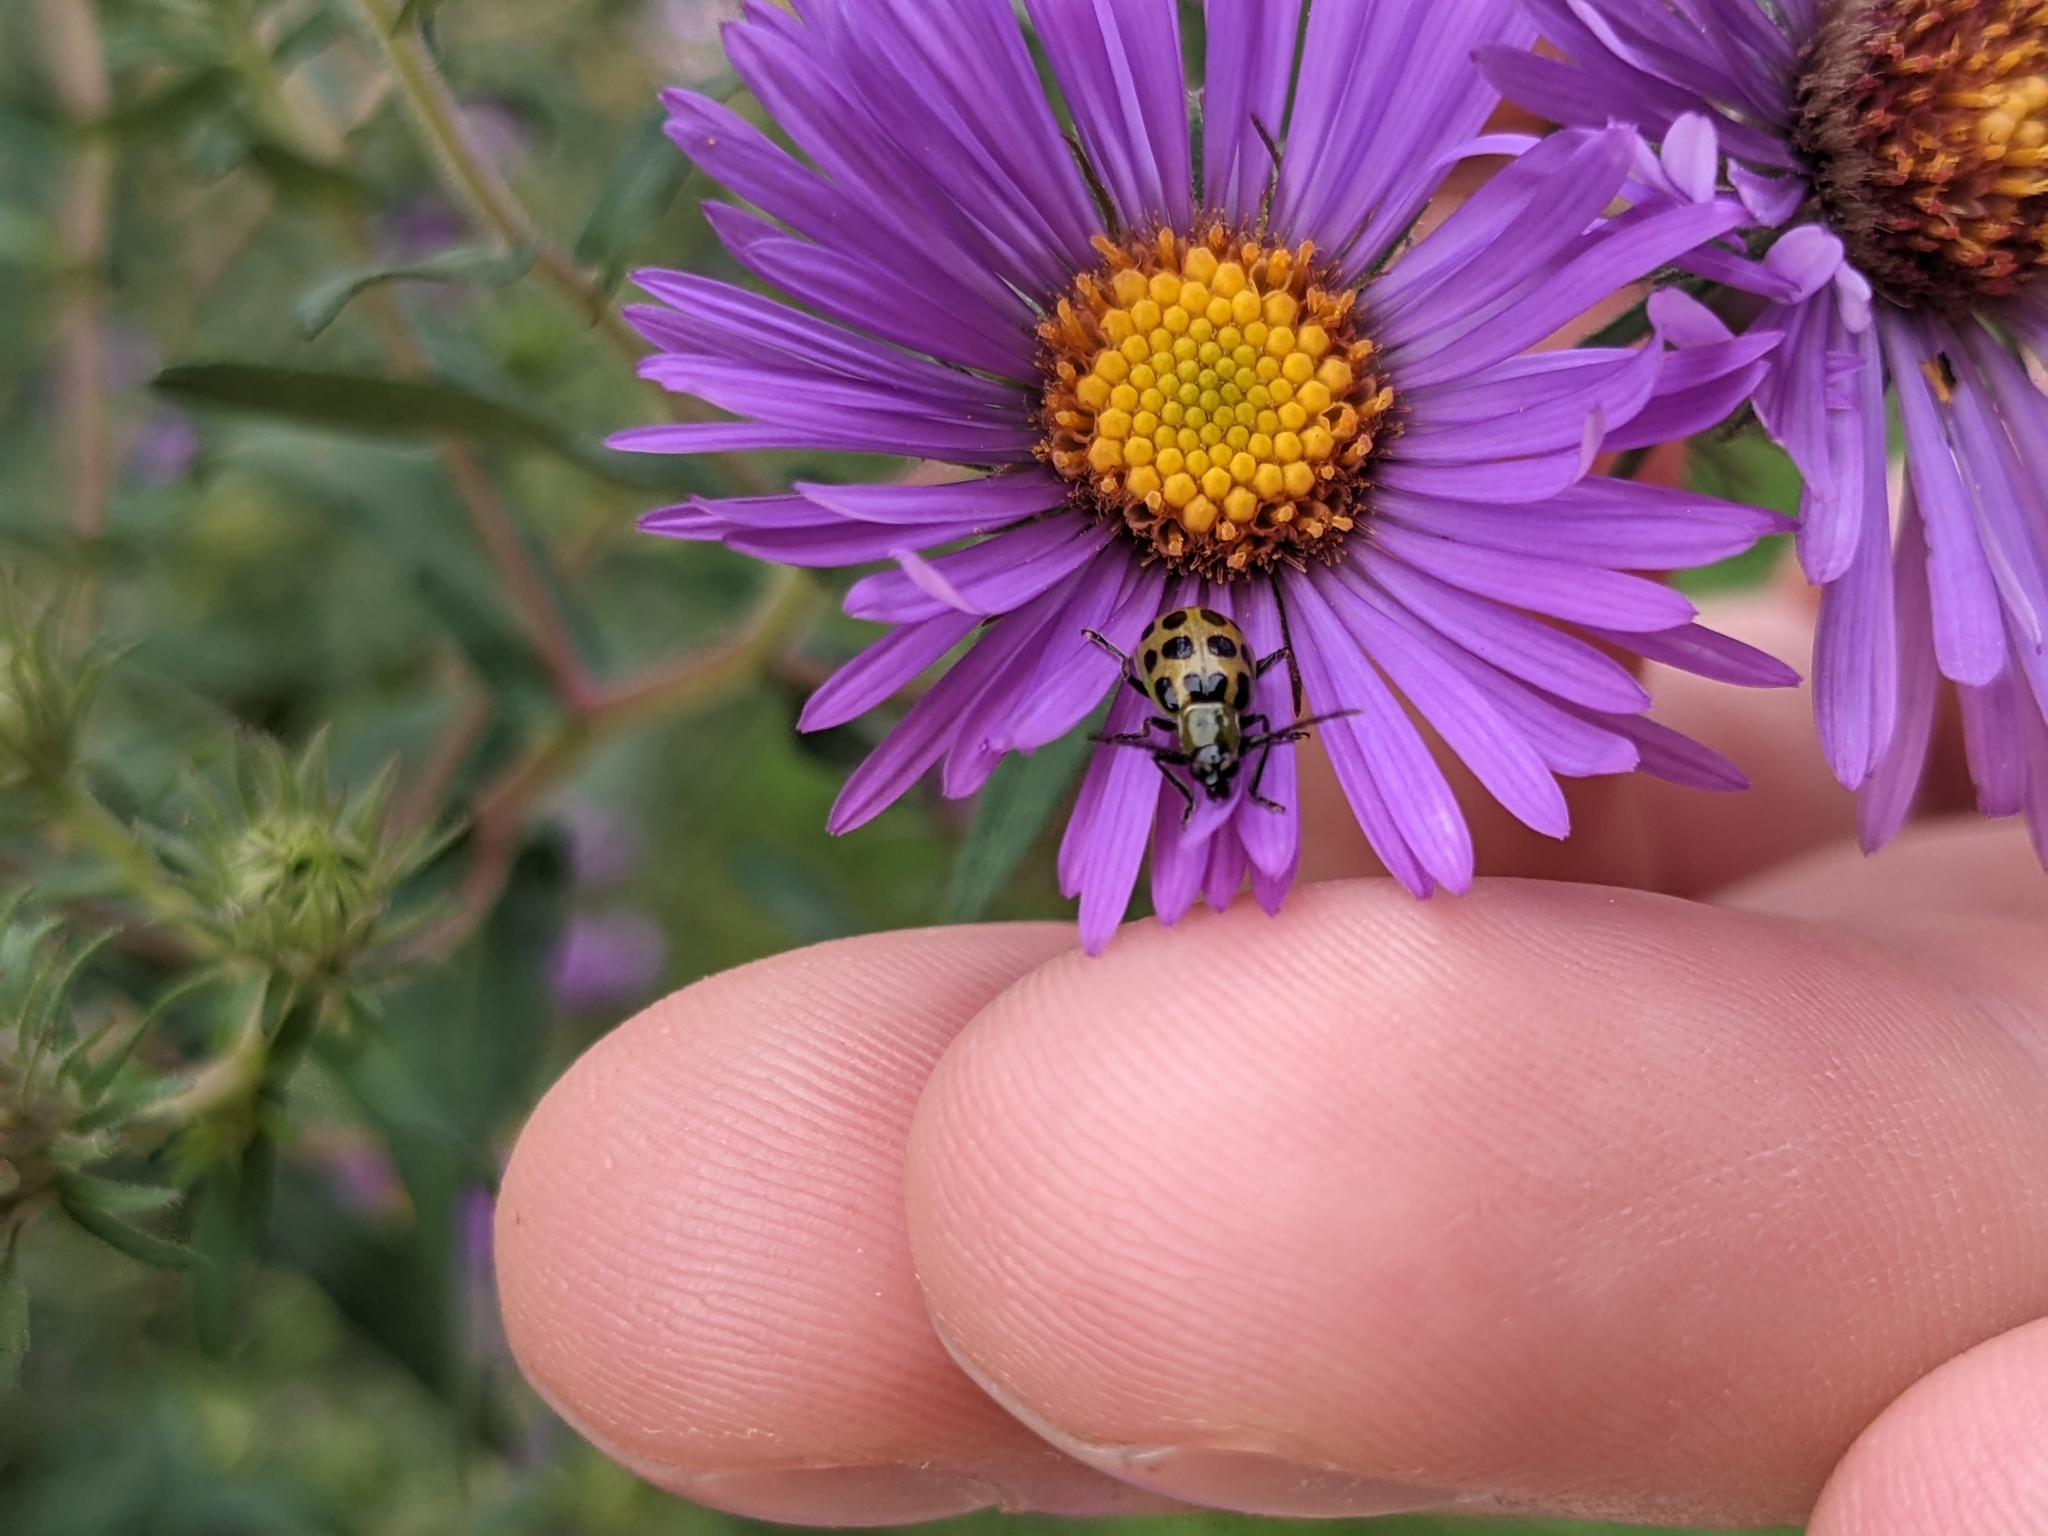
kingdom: Animalia
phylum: Arthropoda
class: Insecta
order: Coleoptera
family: Chrysomelidae
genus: Diabrotica
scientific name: Diabrotica undecimpunctata
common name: Spotted cucumber beetle
